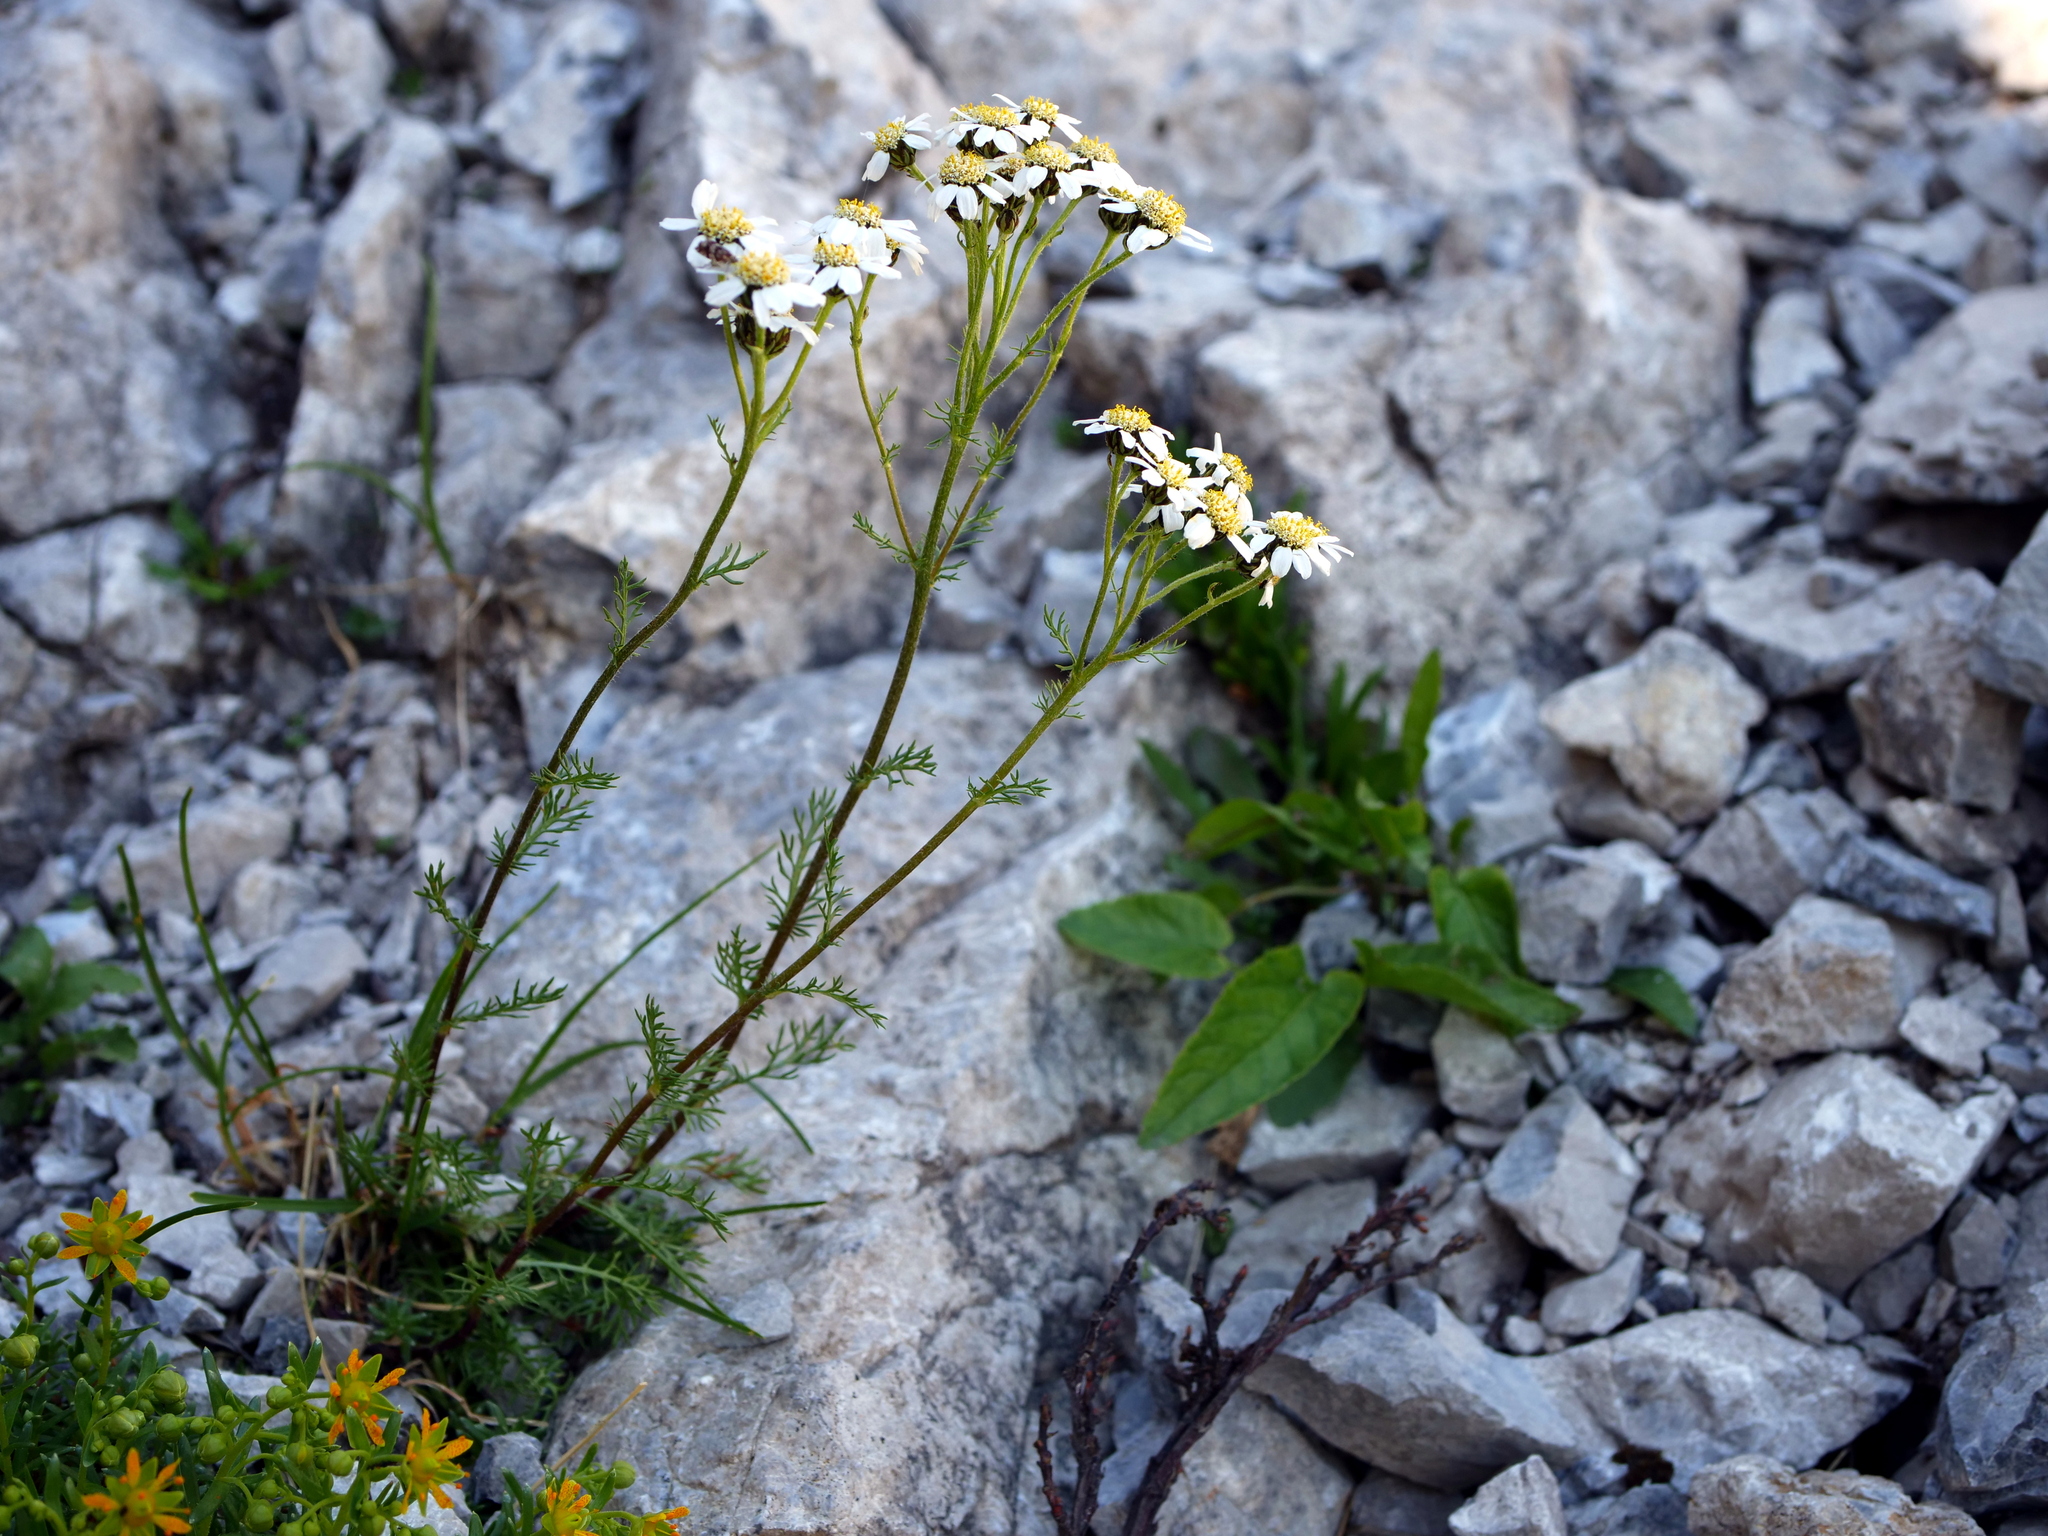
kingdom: Plantae
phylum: Tracheophyta
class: Magnoliopsida
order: Asterales
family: Asteraceae
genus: Achillea
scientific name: Achillea atrata
